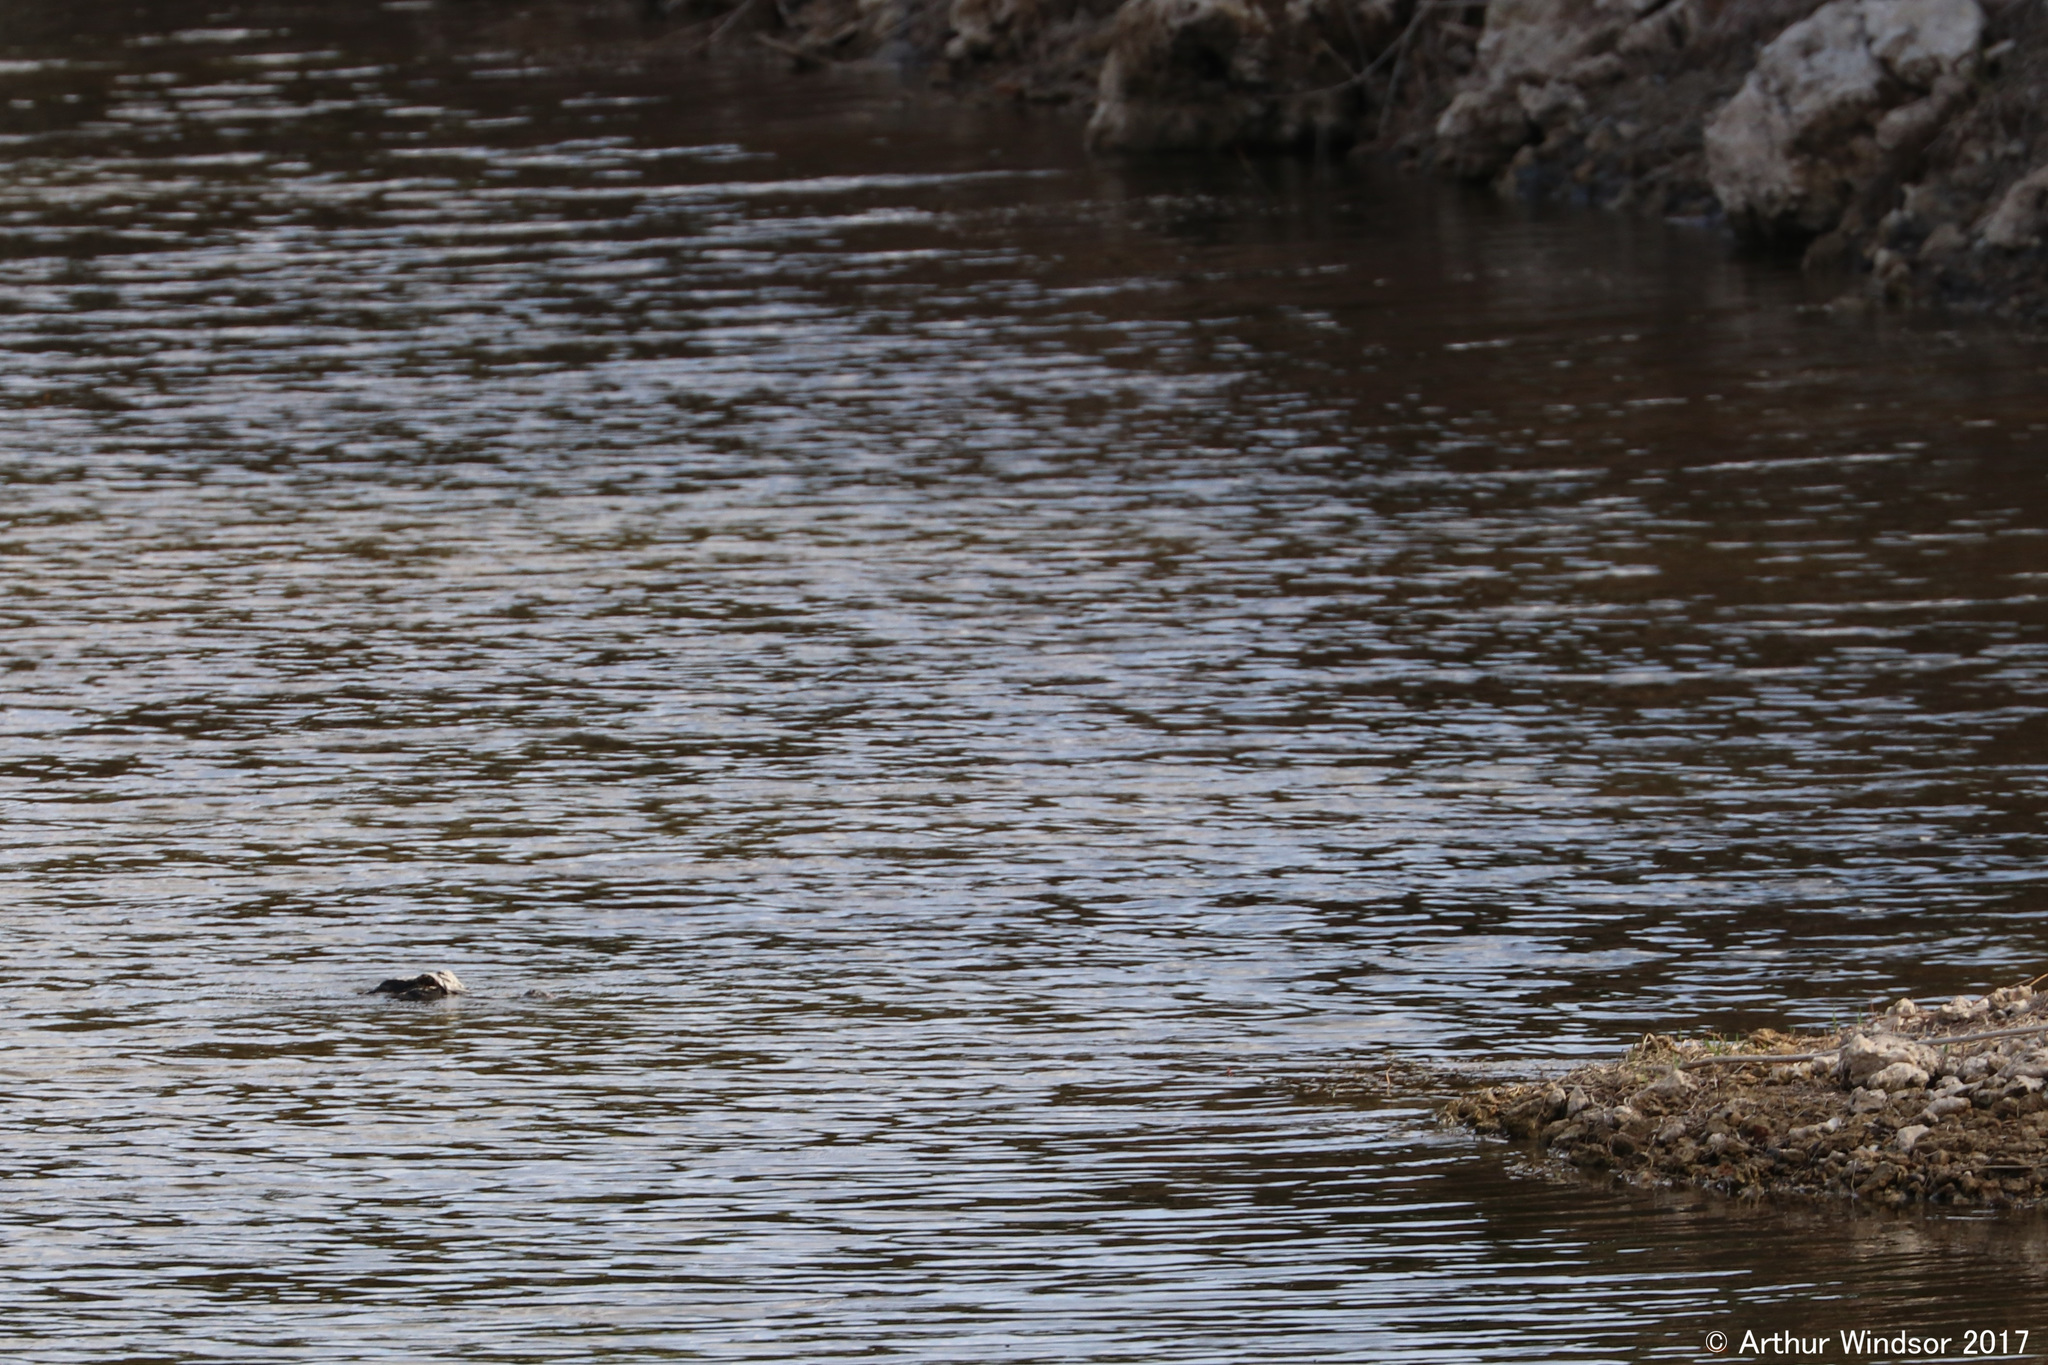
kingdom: Animalia
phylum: Chordata
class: Crocodylia
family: Alligatoridae
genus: Alligator
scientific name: Alligator mississippiensis
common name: American alligator
